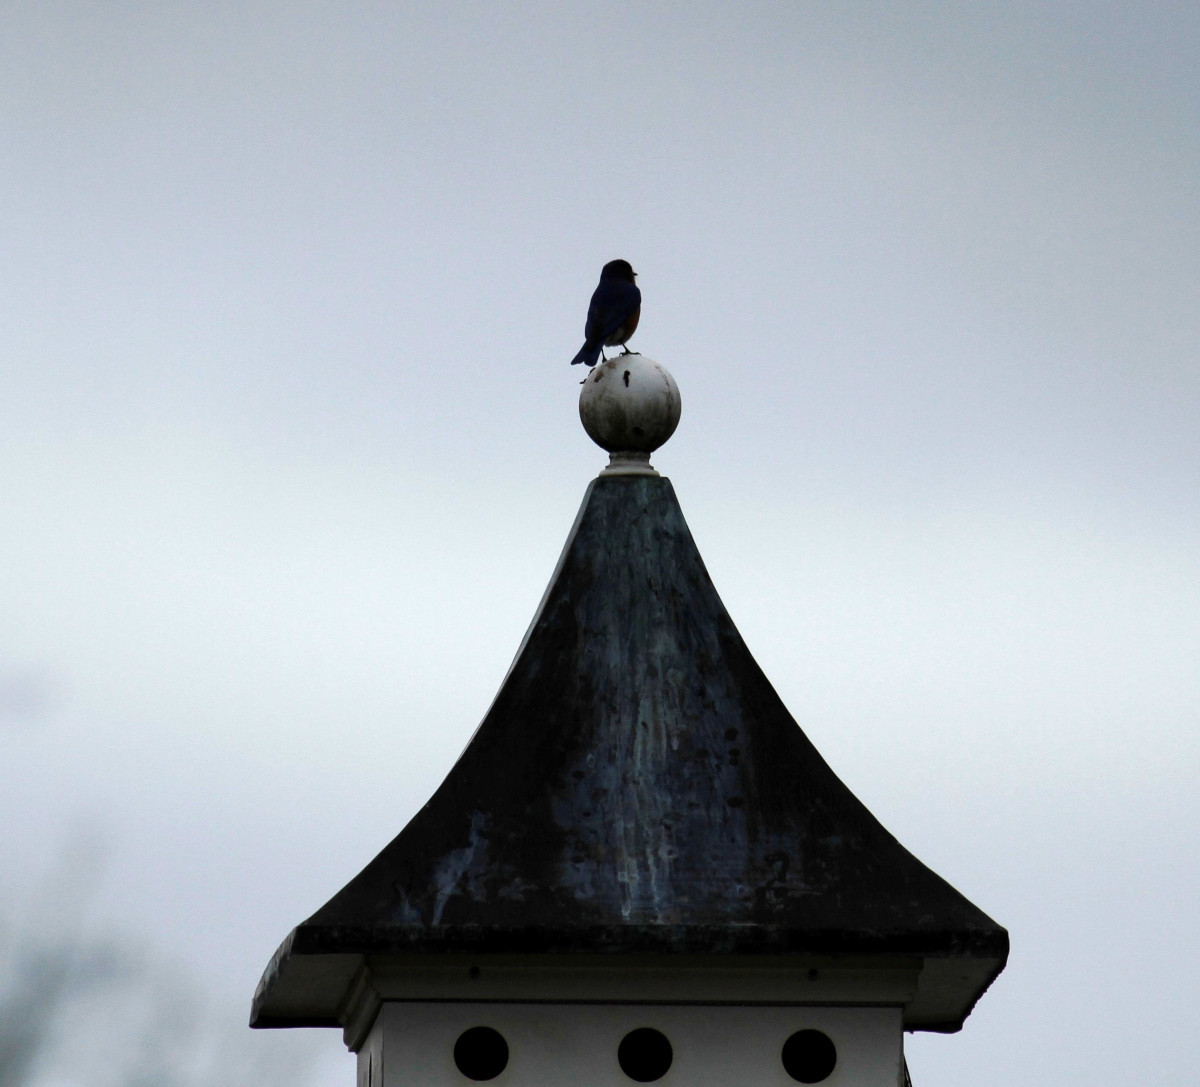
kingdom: Animalia
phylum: Chordata
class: Aves
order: Passeriformes
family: Turdidae
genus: Sialia
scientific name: Sialia sialis
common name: Eastern bluebird
